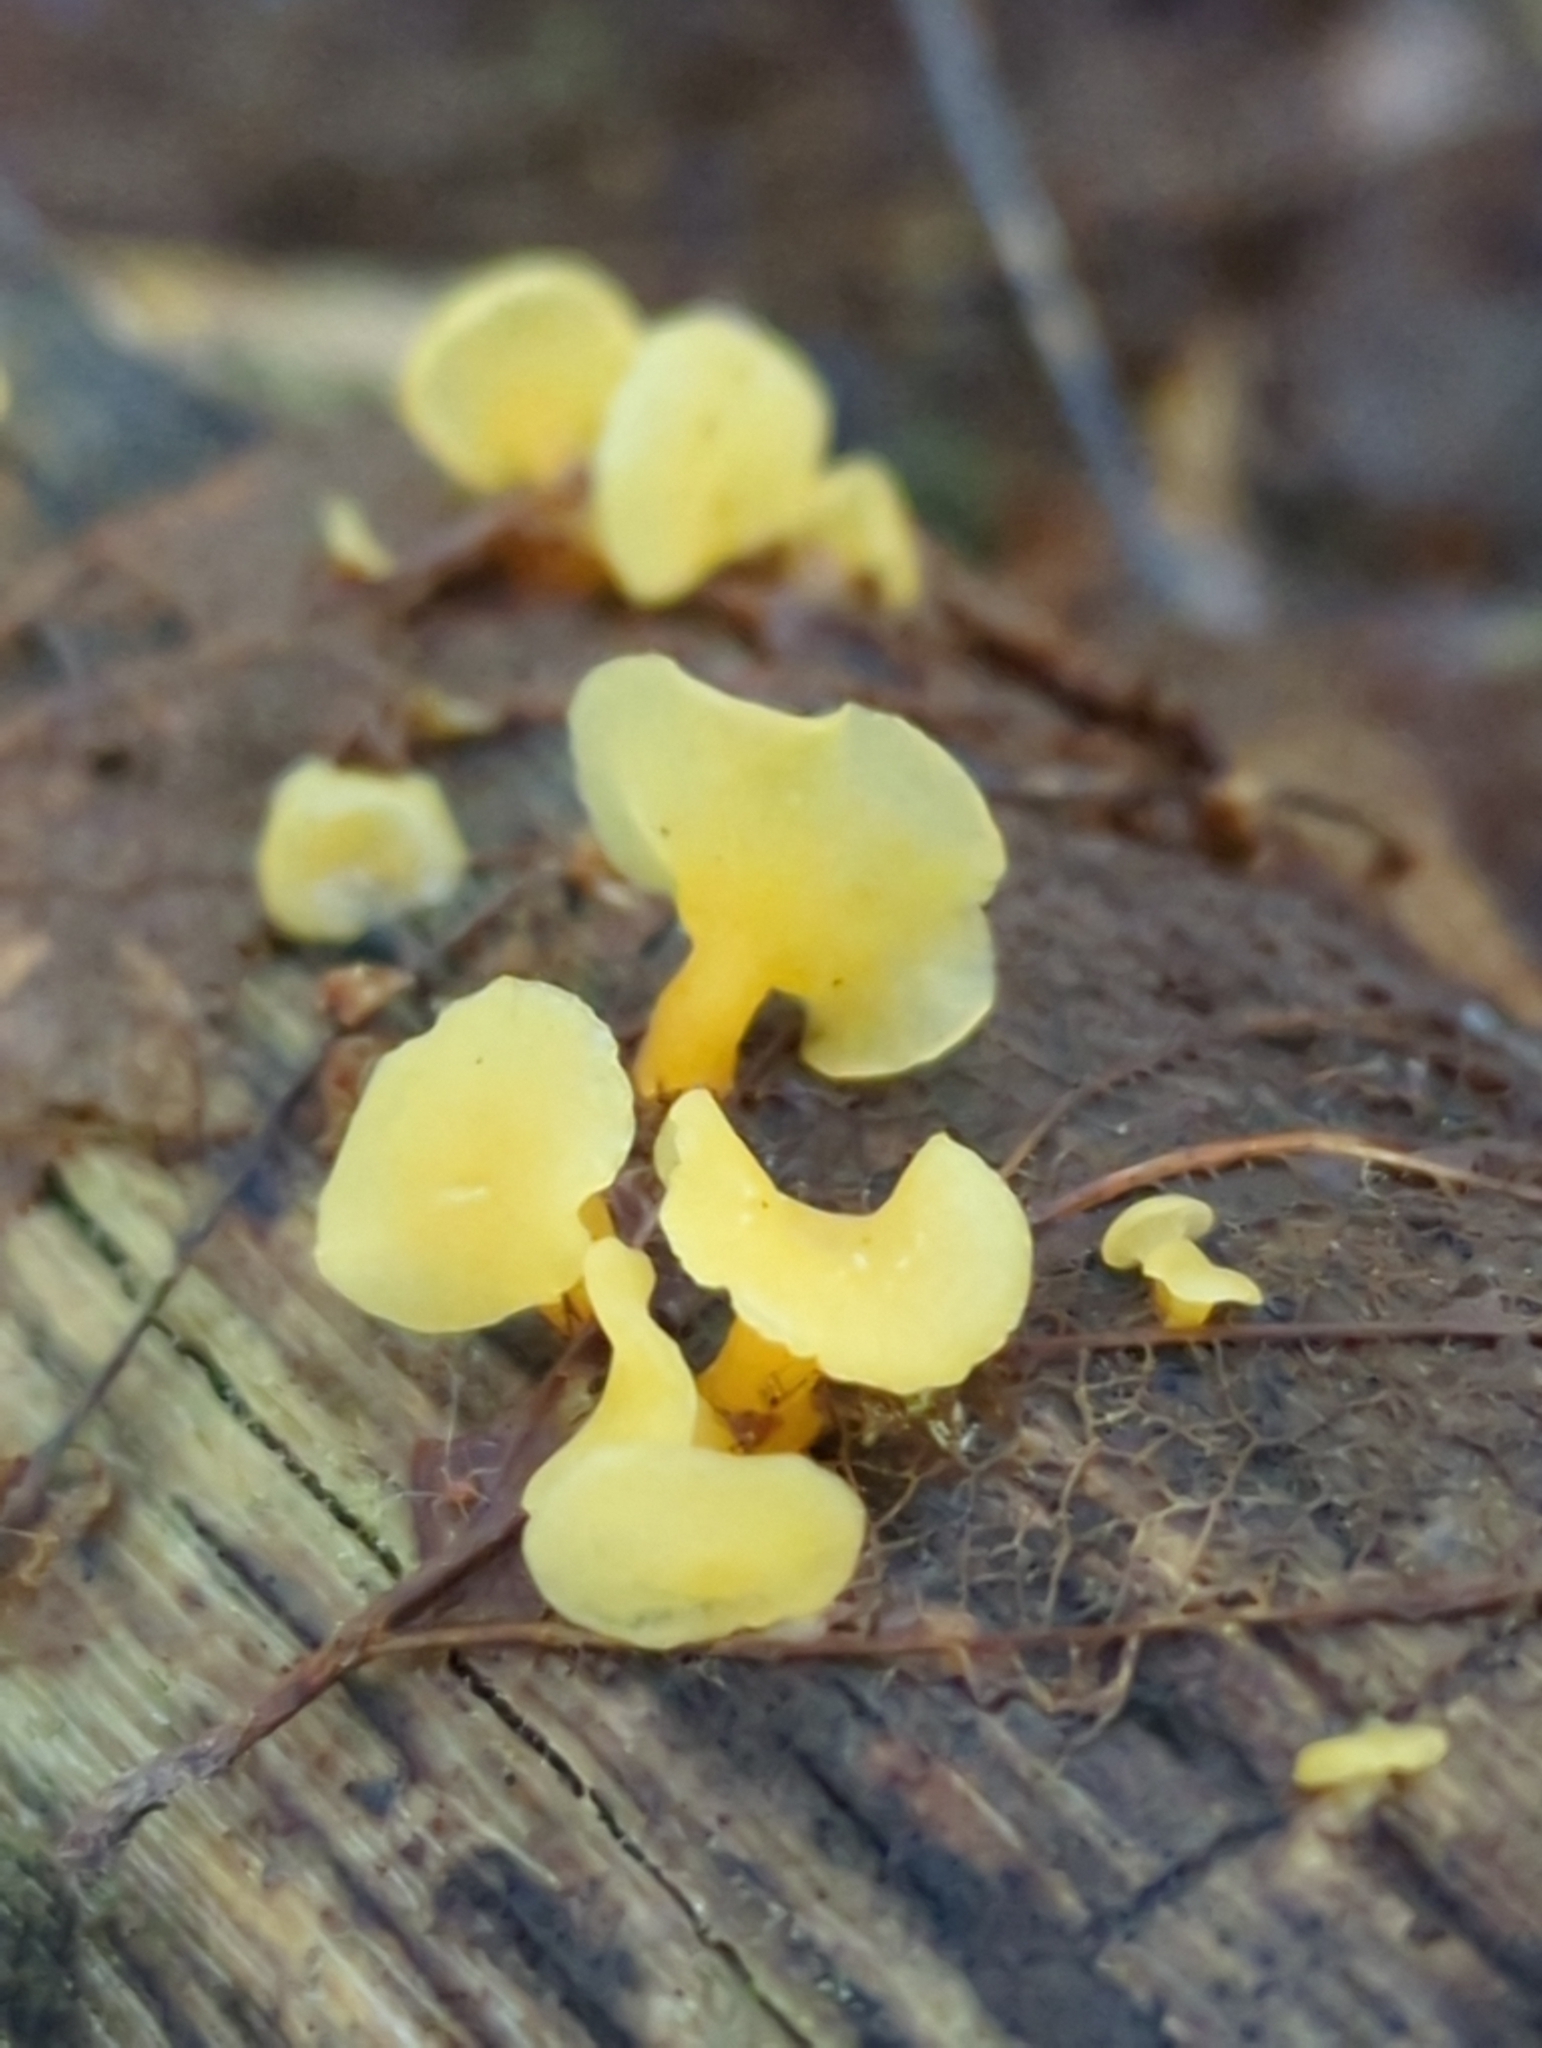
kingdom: Fungi
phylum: Basidiomycota
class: Dacrymycetes
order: Dacrymycetales
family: Dacrymycetaceae
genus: Guepiniopsis
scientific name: Guepiniopsis buccina
